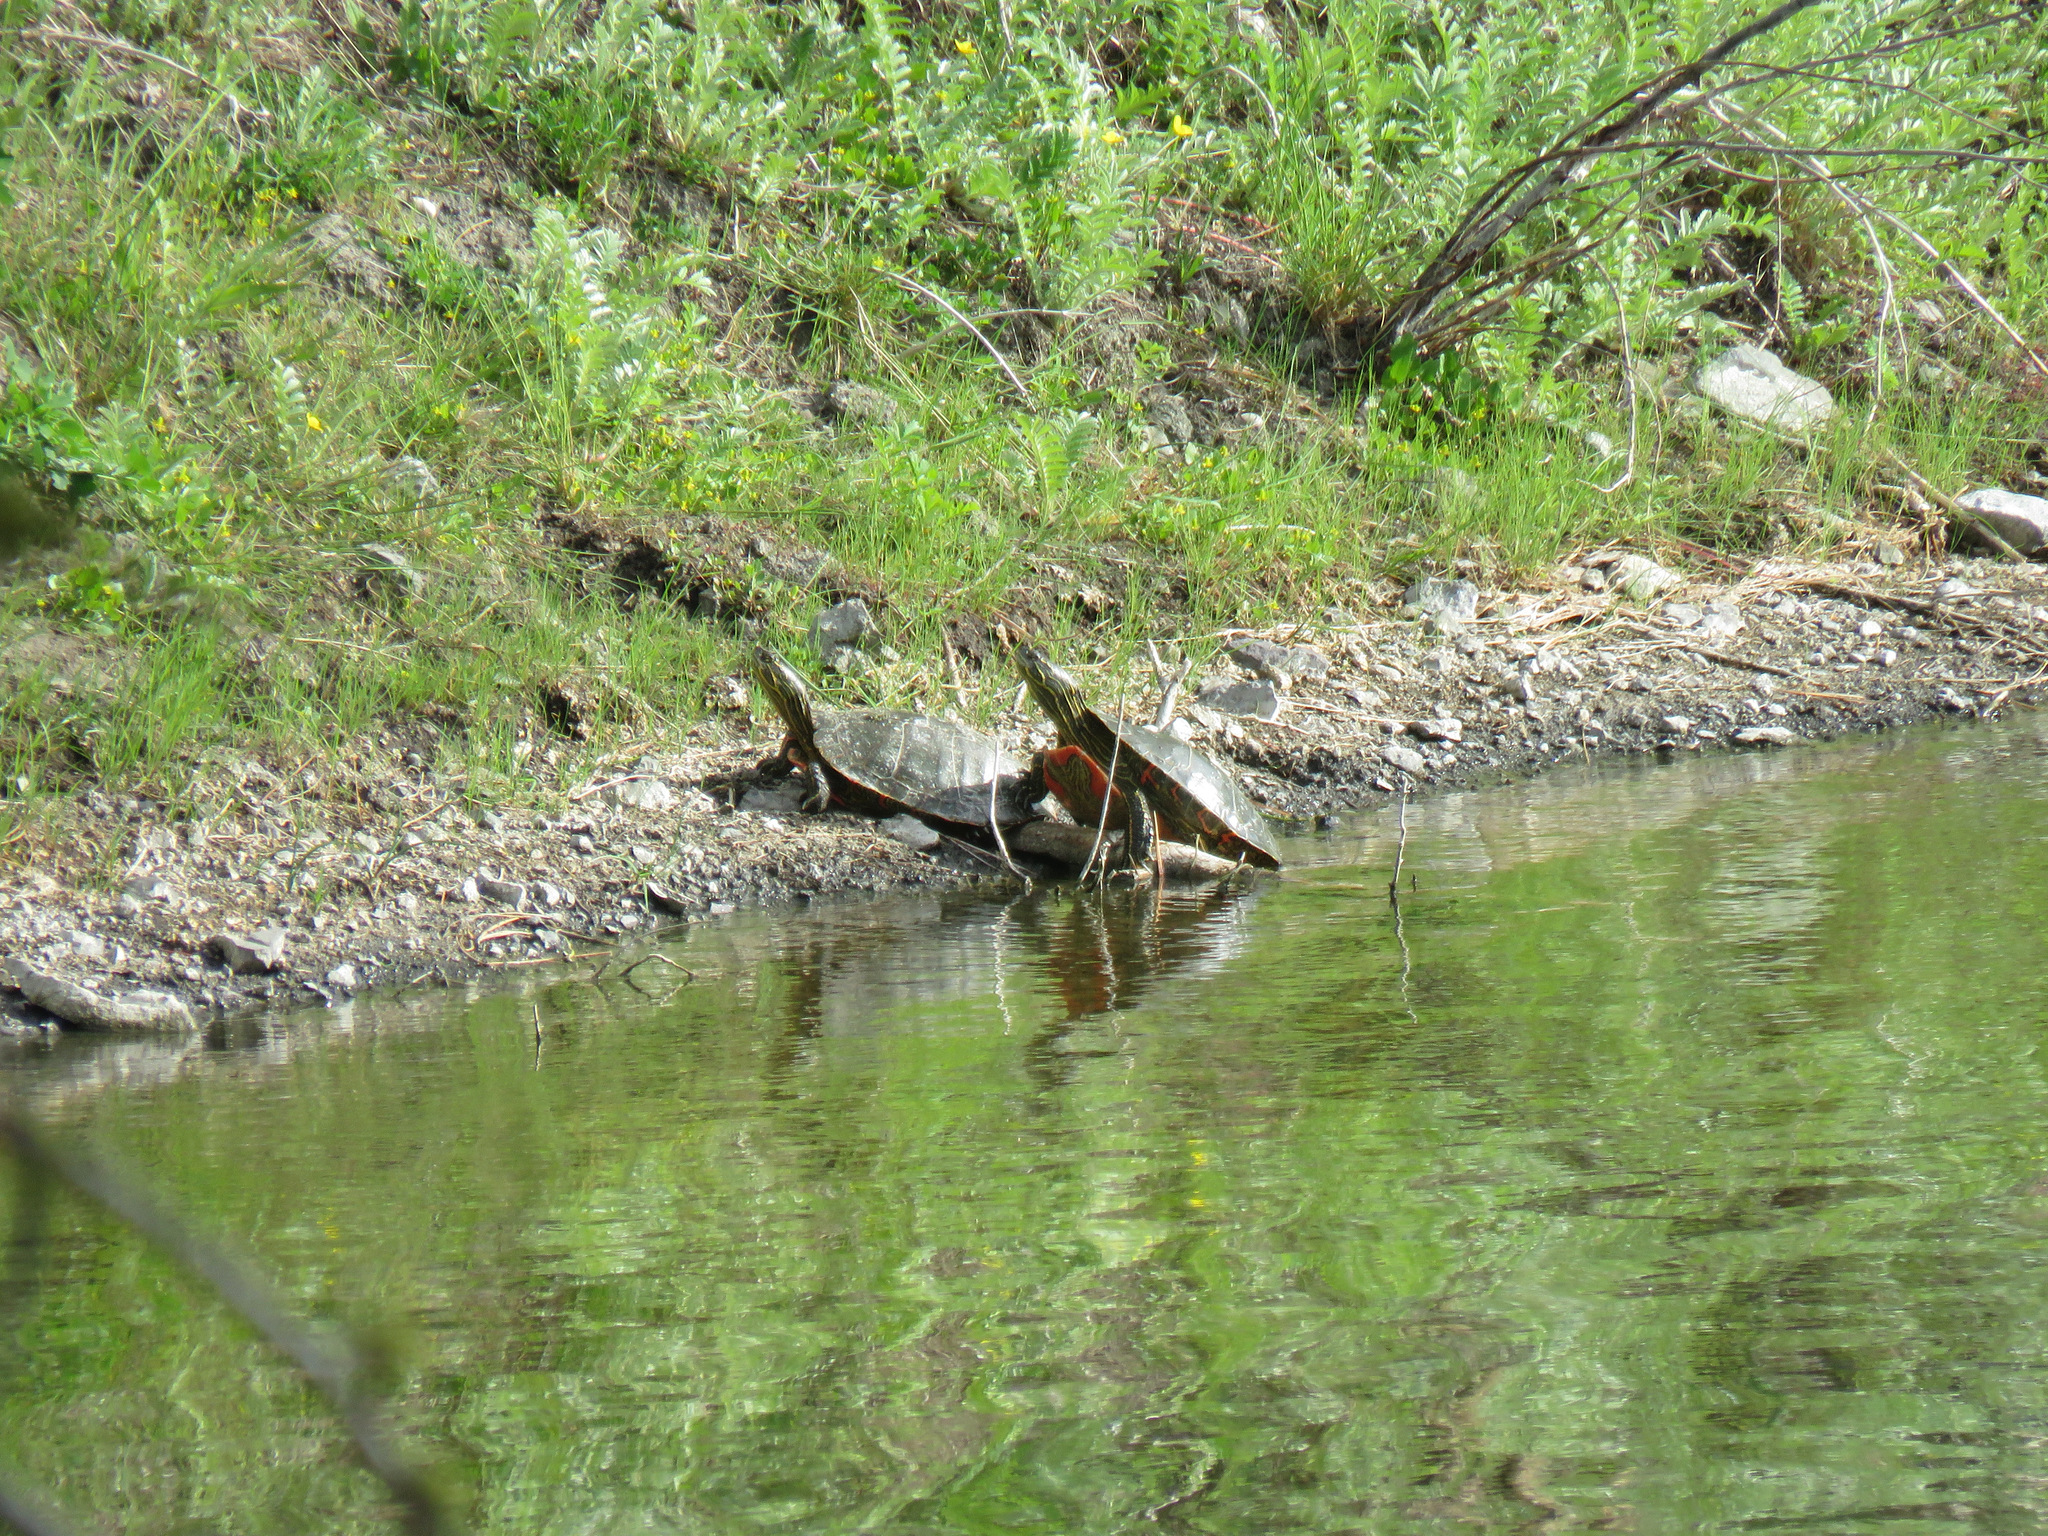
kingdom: Animalia
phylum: Chordata
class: Testudines
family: Emydidae
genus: Chrysemys
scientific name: Chrysemys picta
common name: Painted turtle
